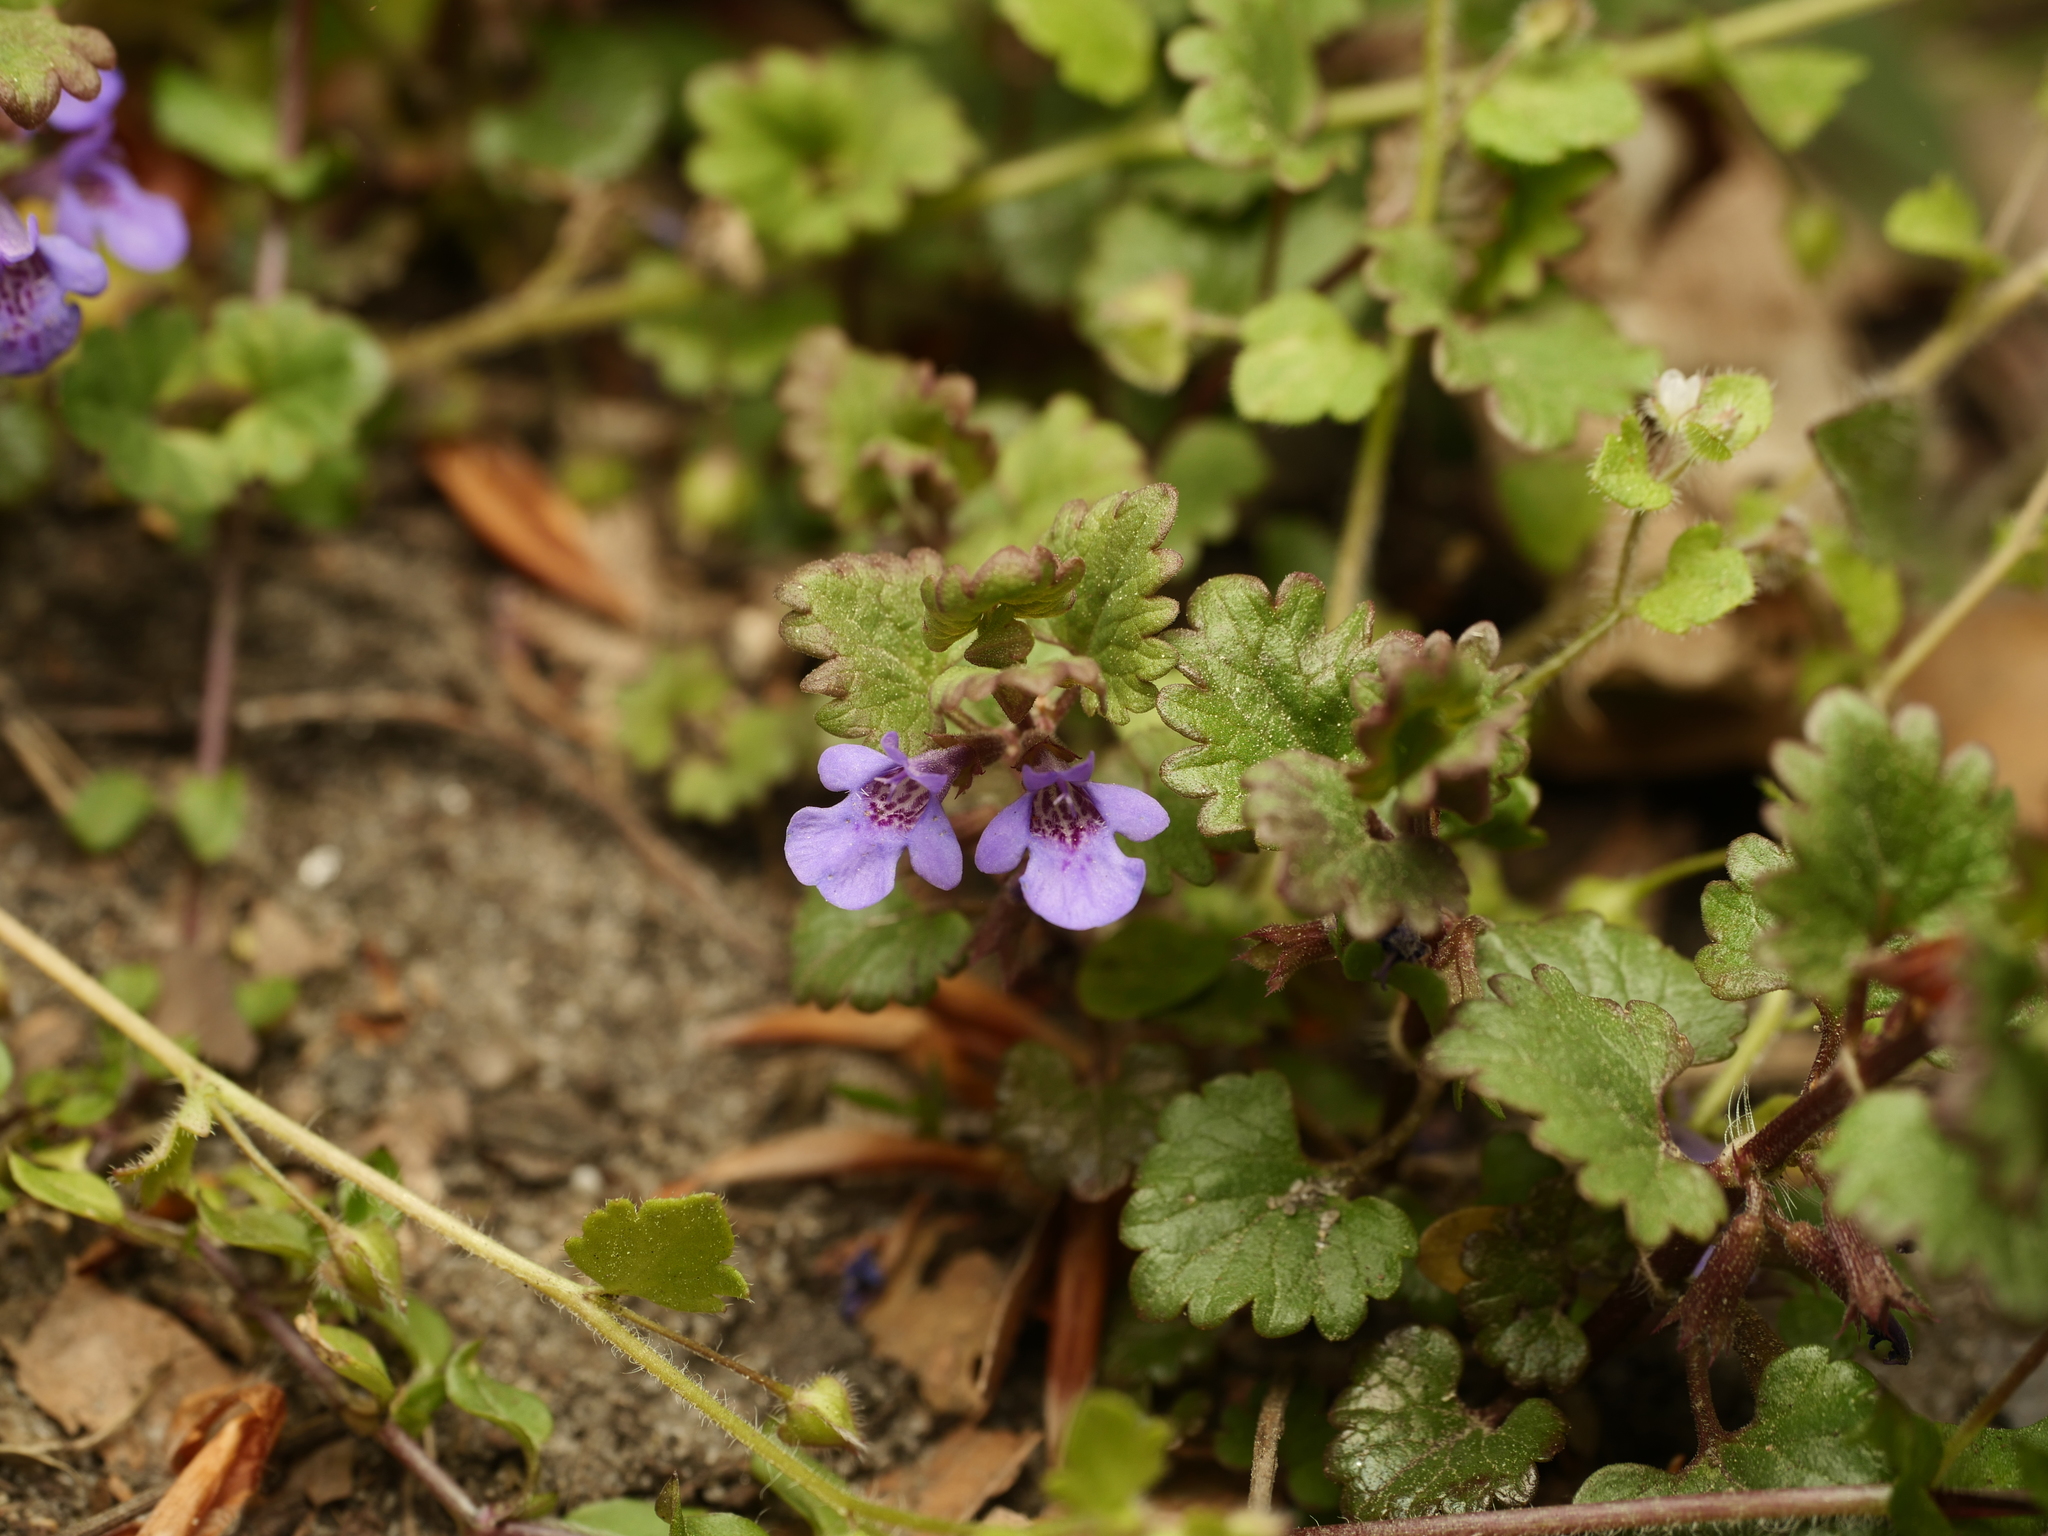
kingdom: Plantae
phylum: Tracheophyta
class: Magnoliopsida
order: Lamiales
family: Lamiaceae
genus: Glechoma
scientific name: Glechoma hederacea
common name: Ground ivy
